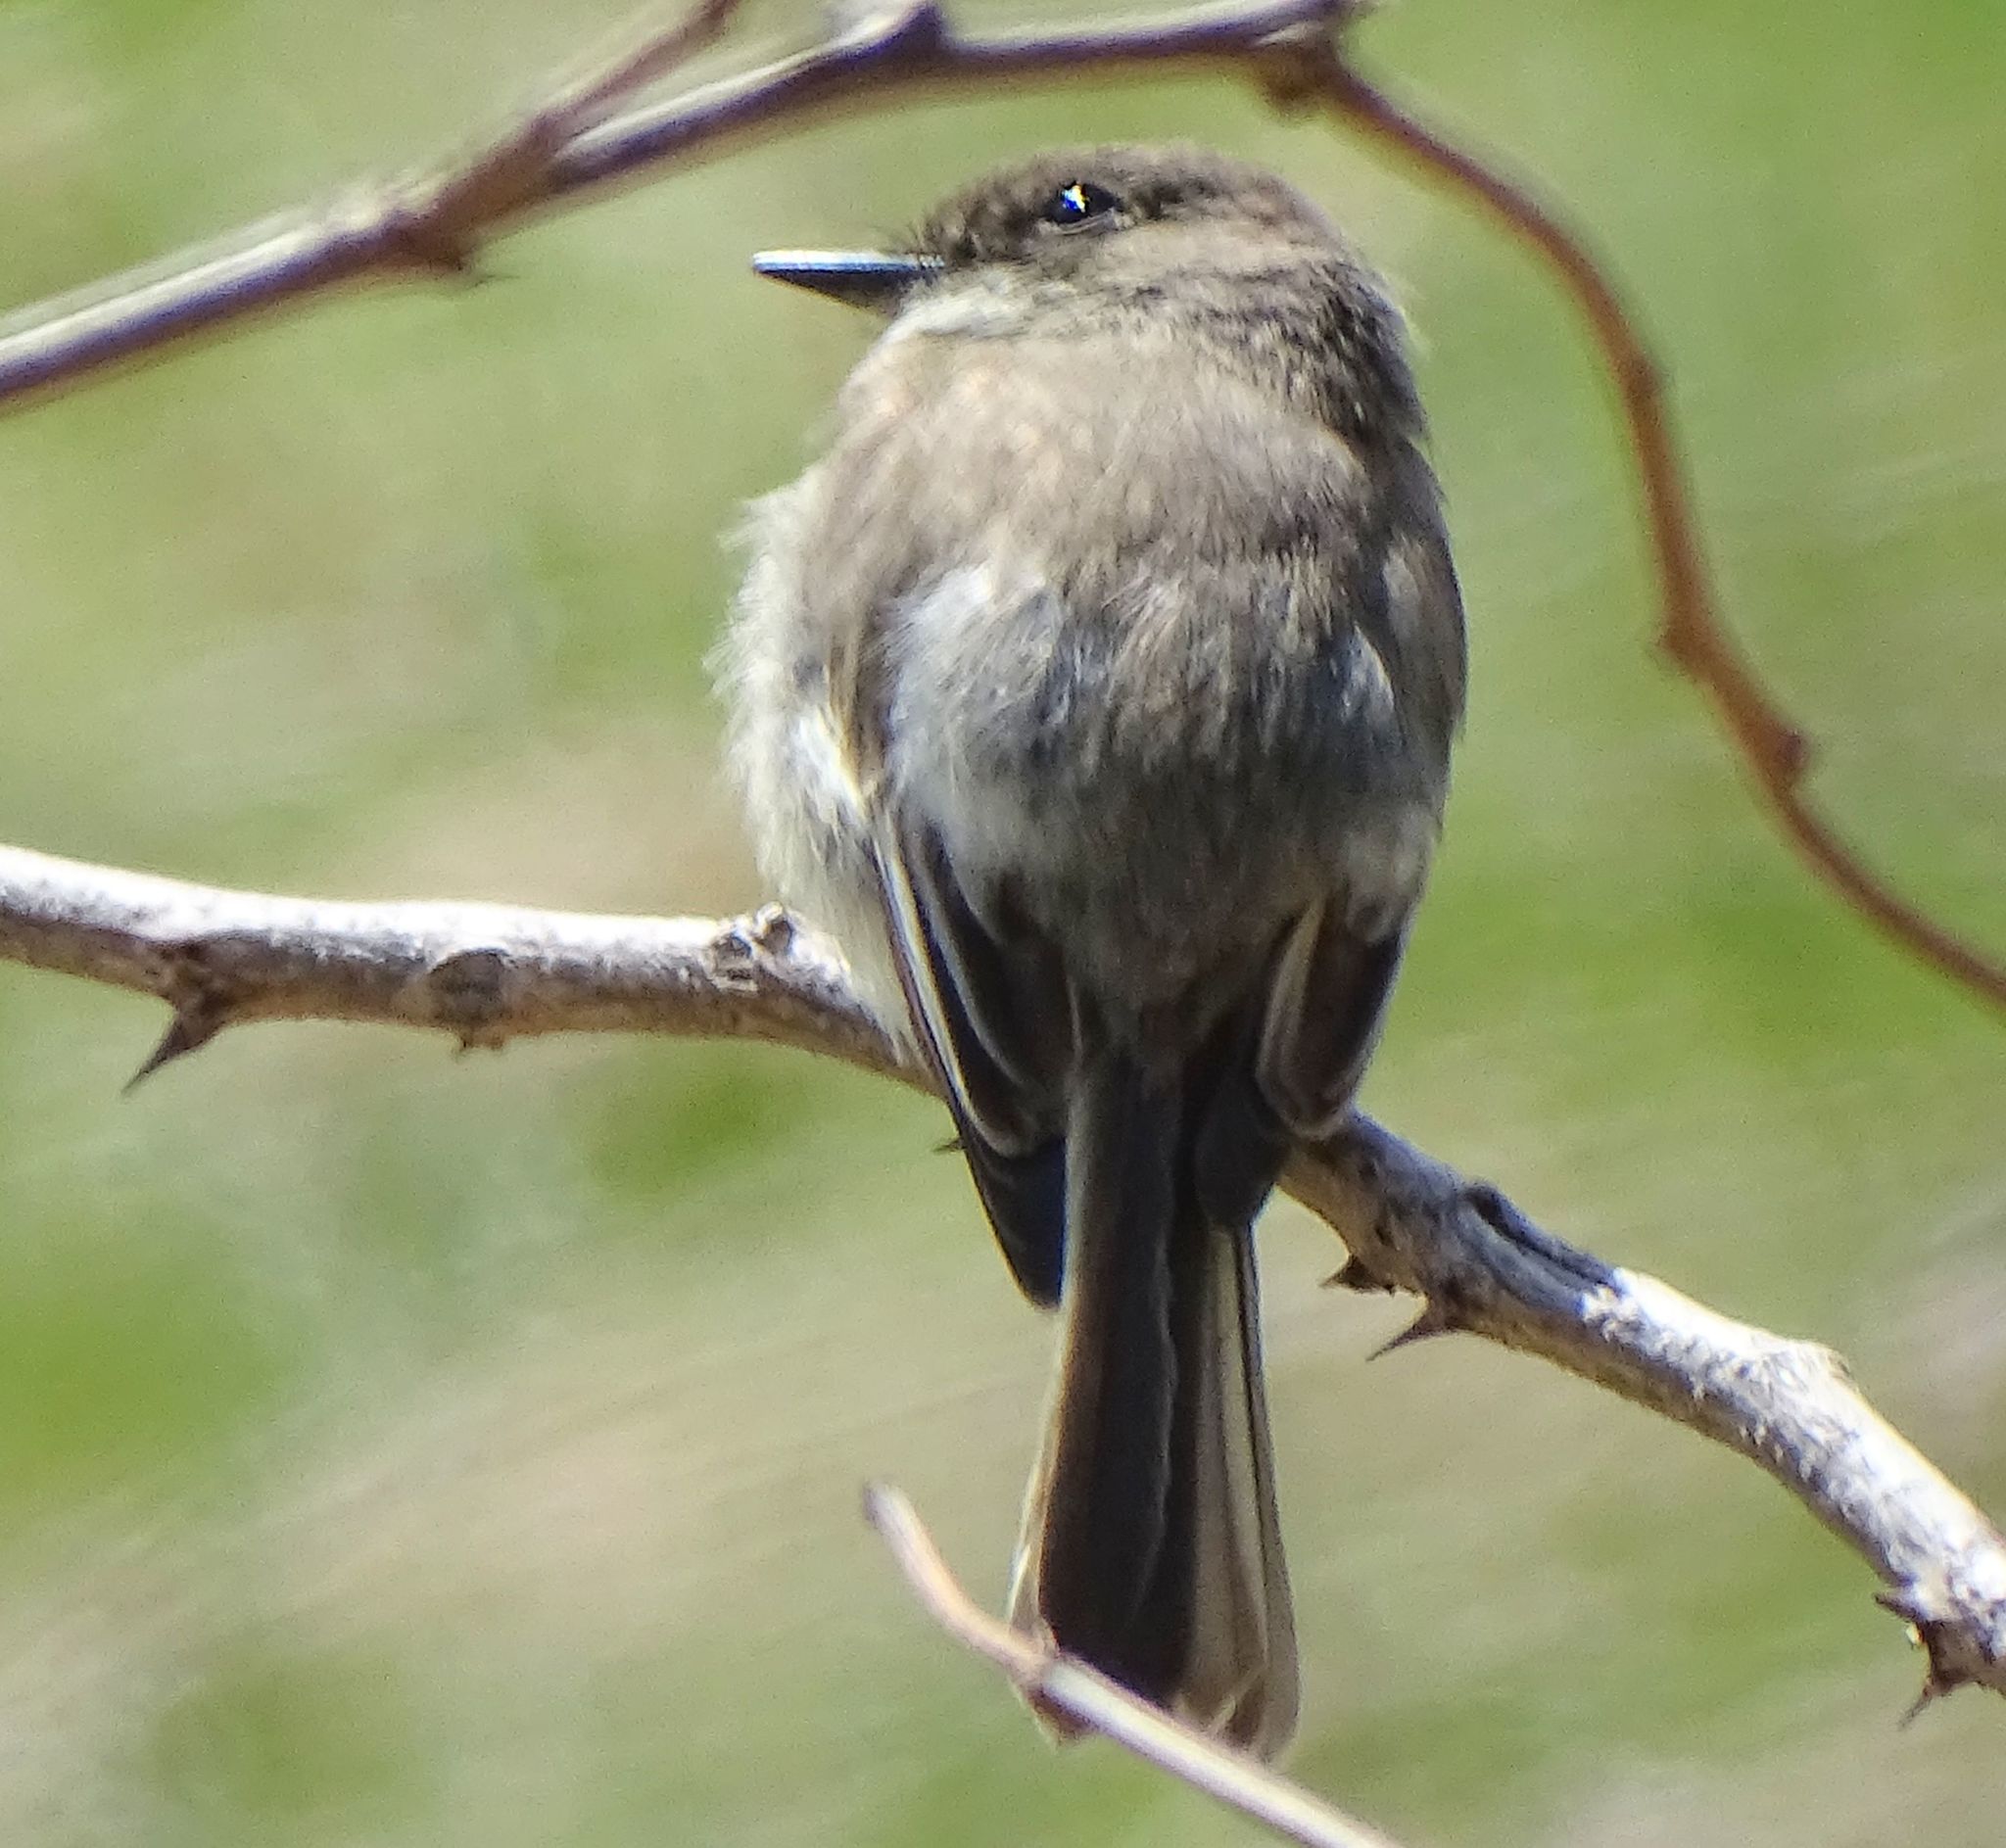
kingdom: Animalia
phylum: Chordata
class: Aves
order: Passeriformes
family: Tyrannidae
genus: Sayornis
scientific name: Sayornis phoebe
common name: Eastern phoebe
